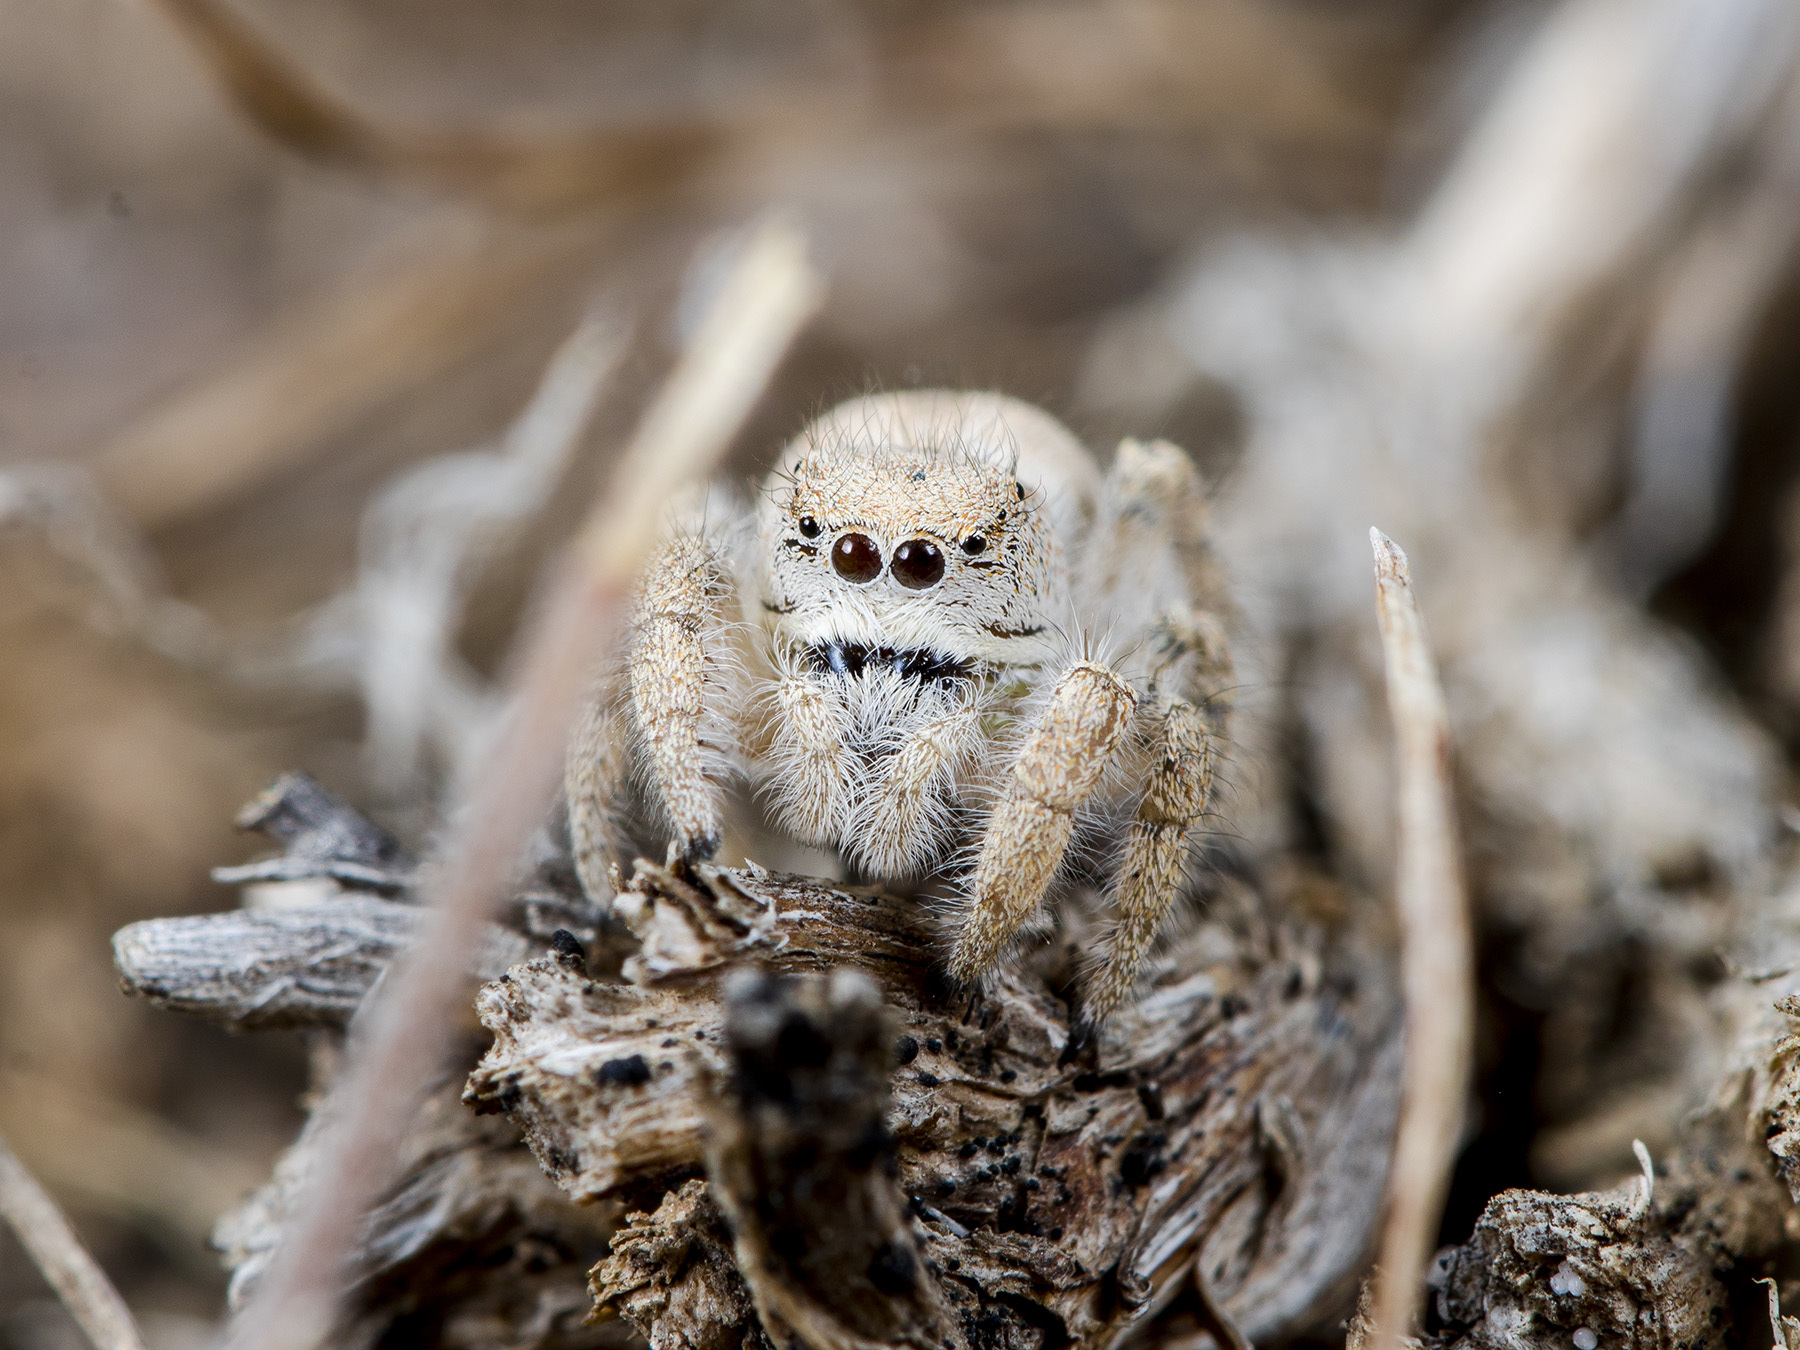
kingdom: Animalia
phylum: Arthropoda
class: Arachnida
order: Araneae
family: Salticidae
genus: Pseudomogrus
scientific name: Pseudomogrus zhilgaensis
